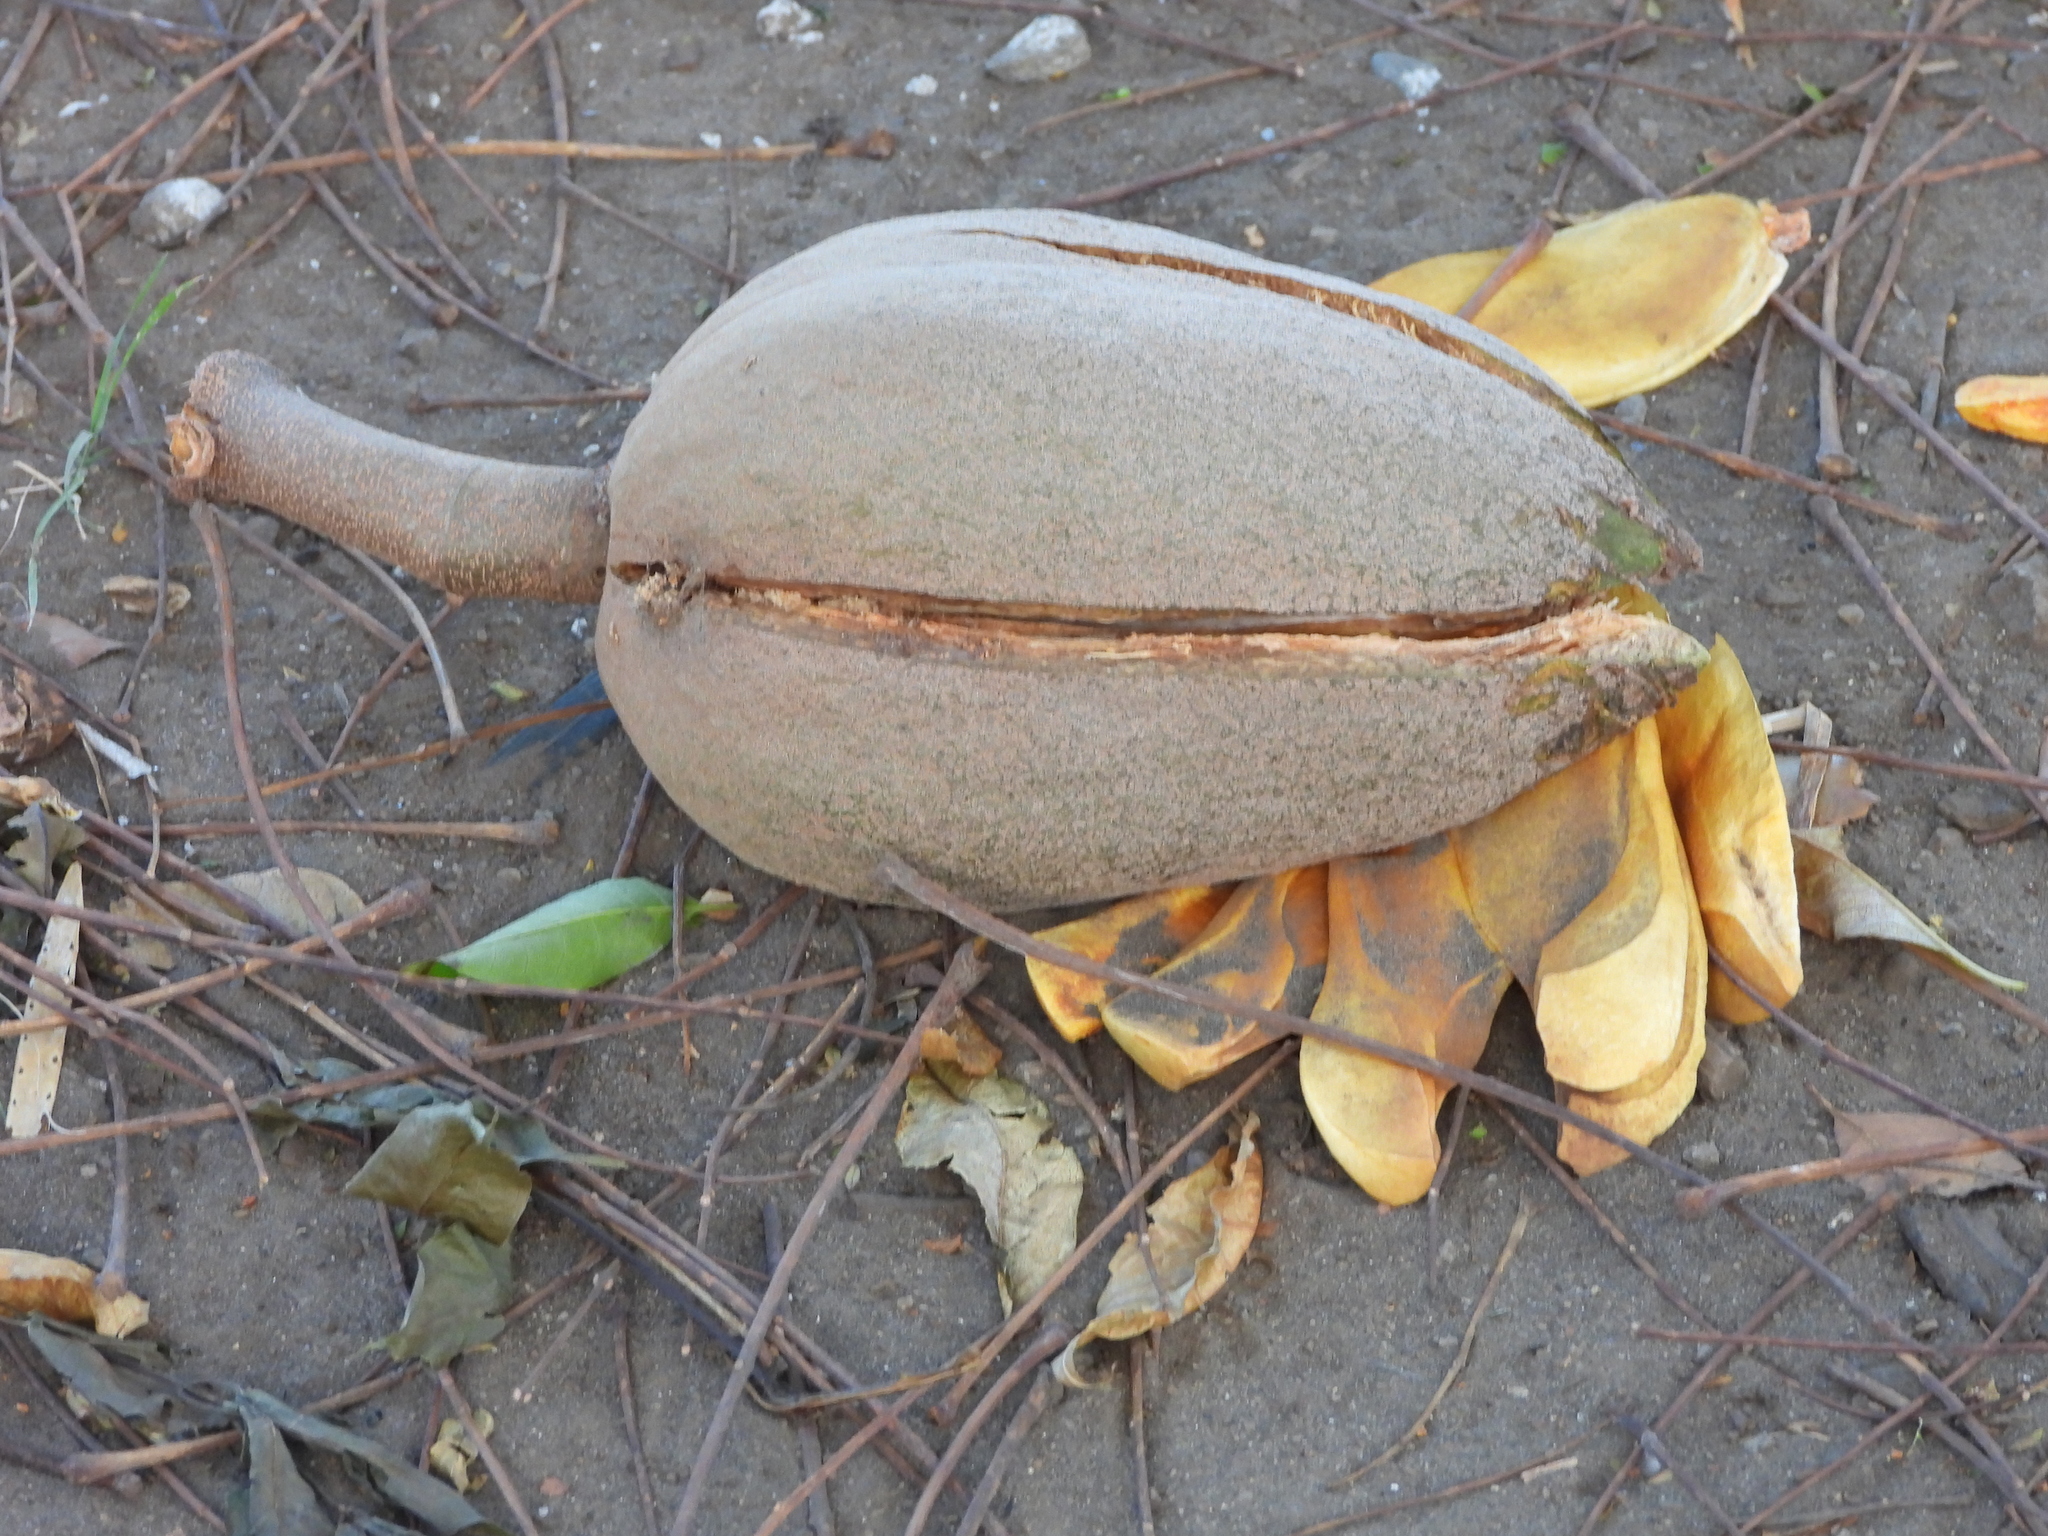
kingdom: Plantae
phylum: Tracheophyta
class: Magnoliopsida
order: Sapindales
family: Meliaceae
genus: Swietenia
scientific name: Swietenia macrophylla
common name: Honduras mahogany
